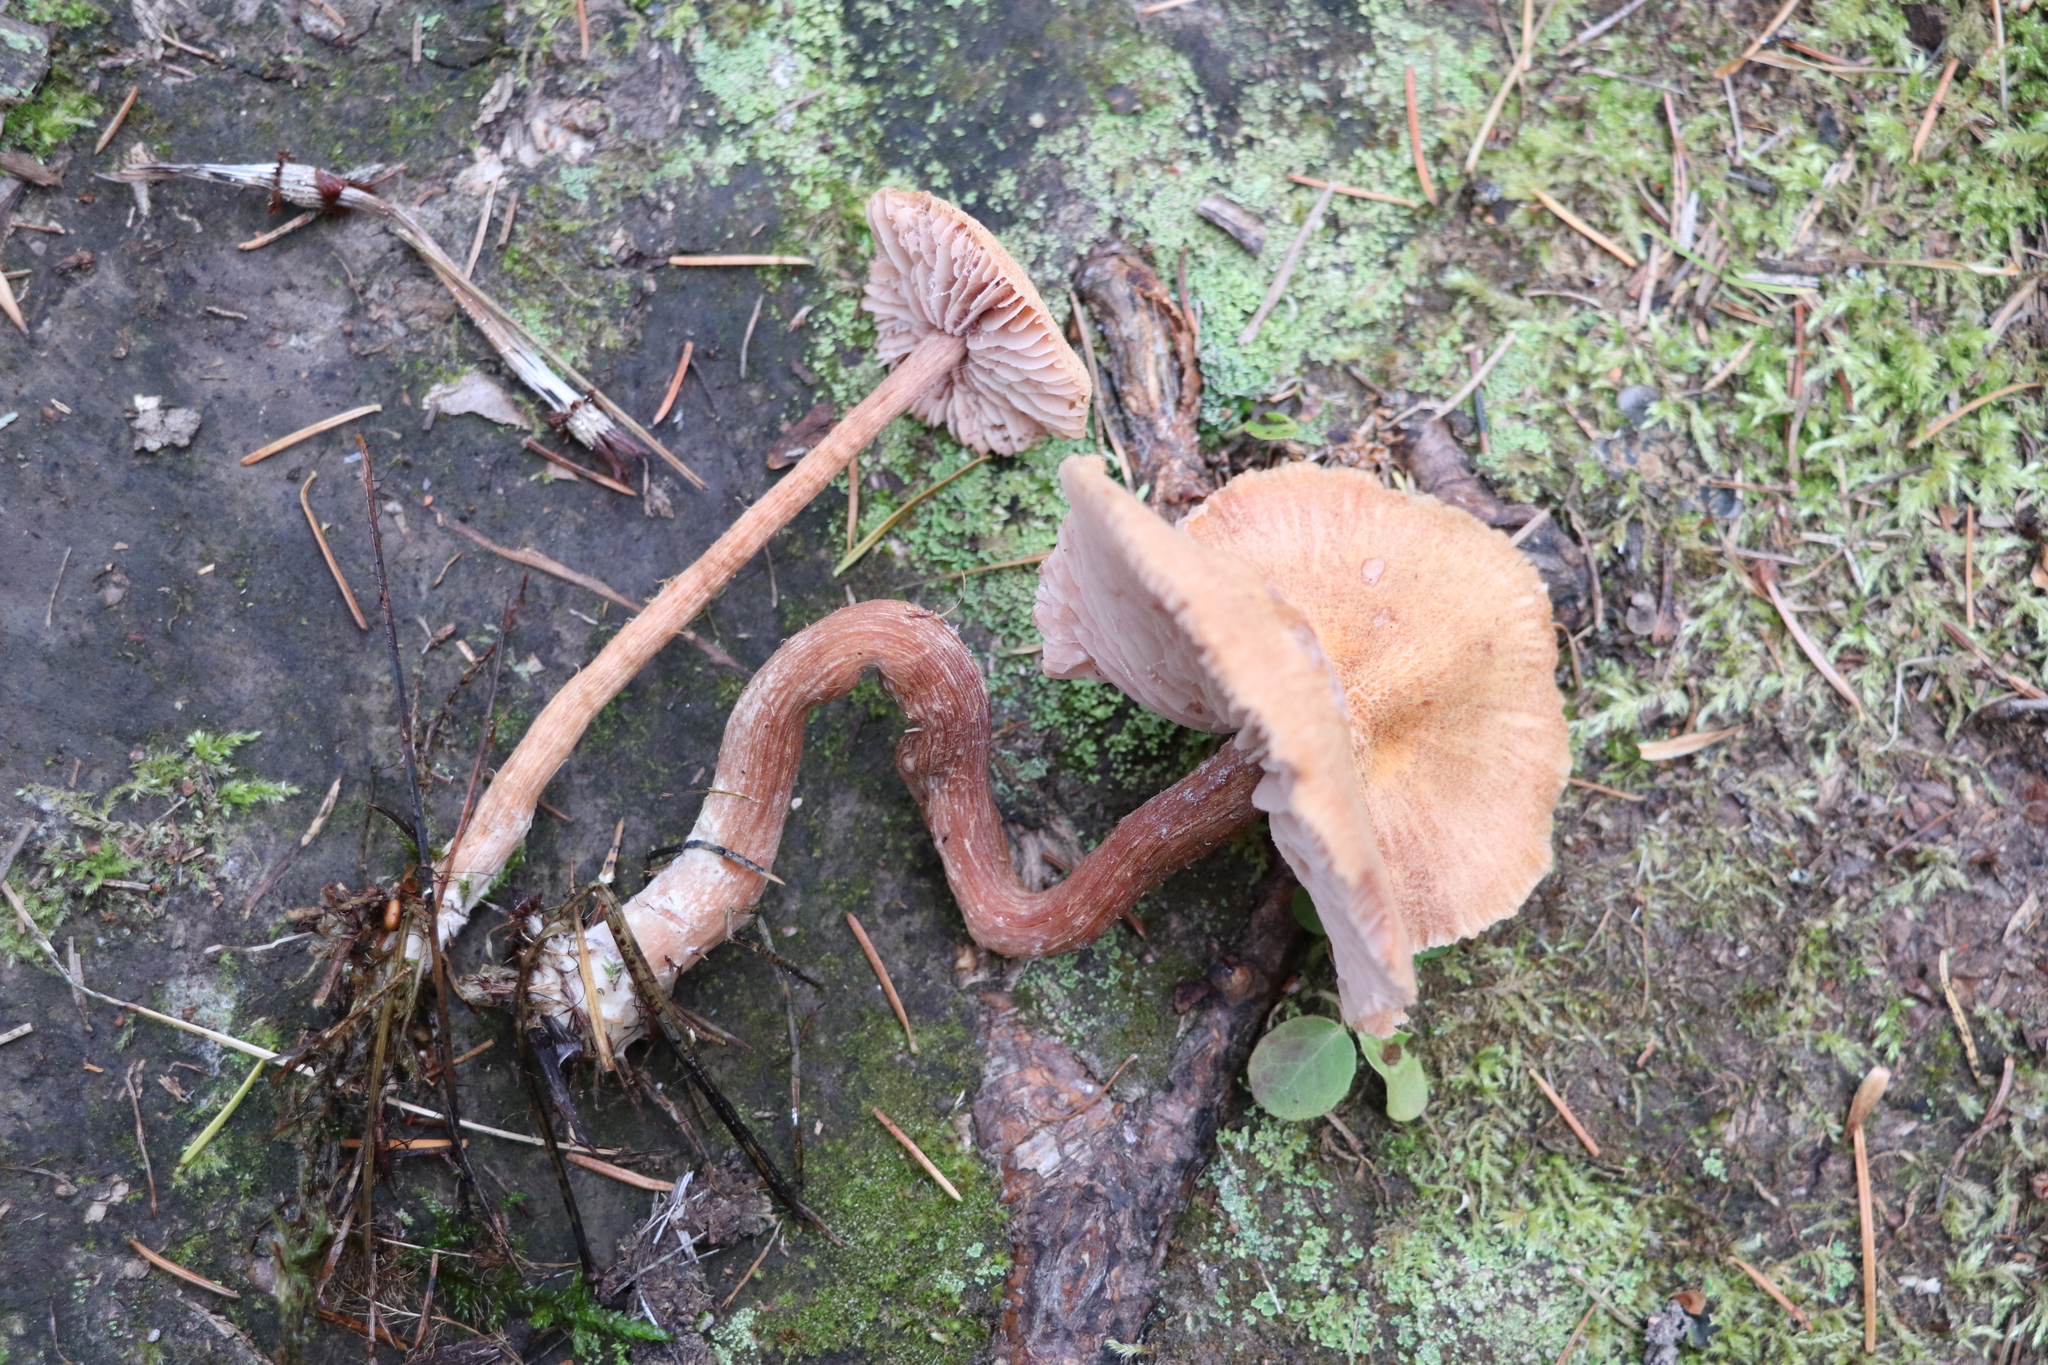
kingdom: Fungi
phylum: Basidiomycota
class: Agaricomycetes
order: Agaricales
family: Hydnangiaceae
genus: Laccaria
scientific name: Laccaria proxima
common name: Scurfy deceiver
